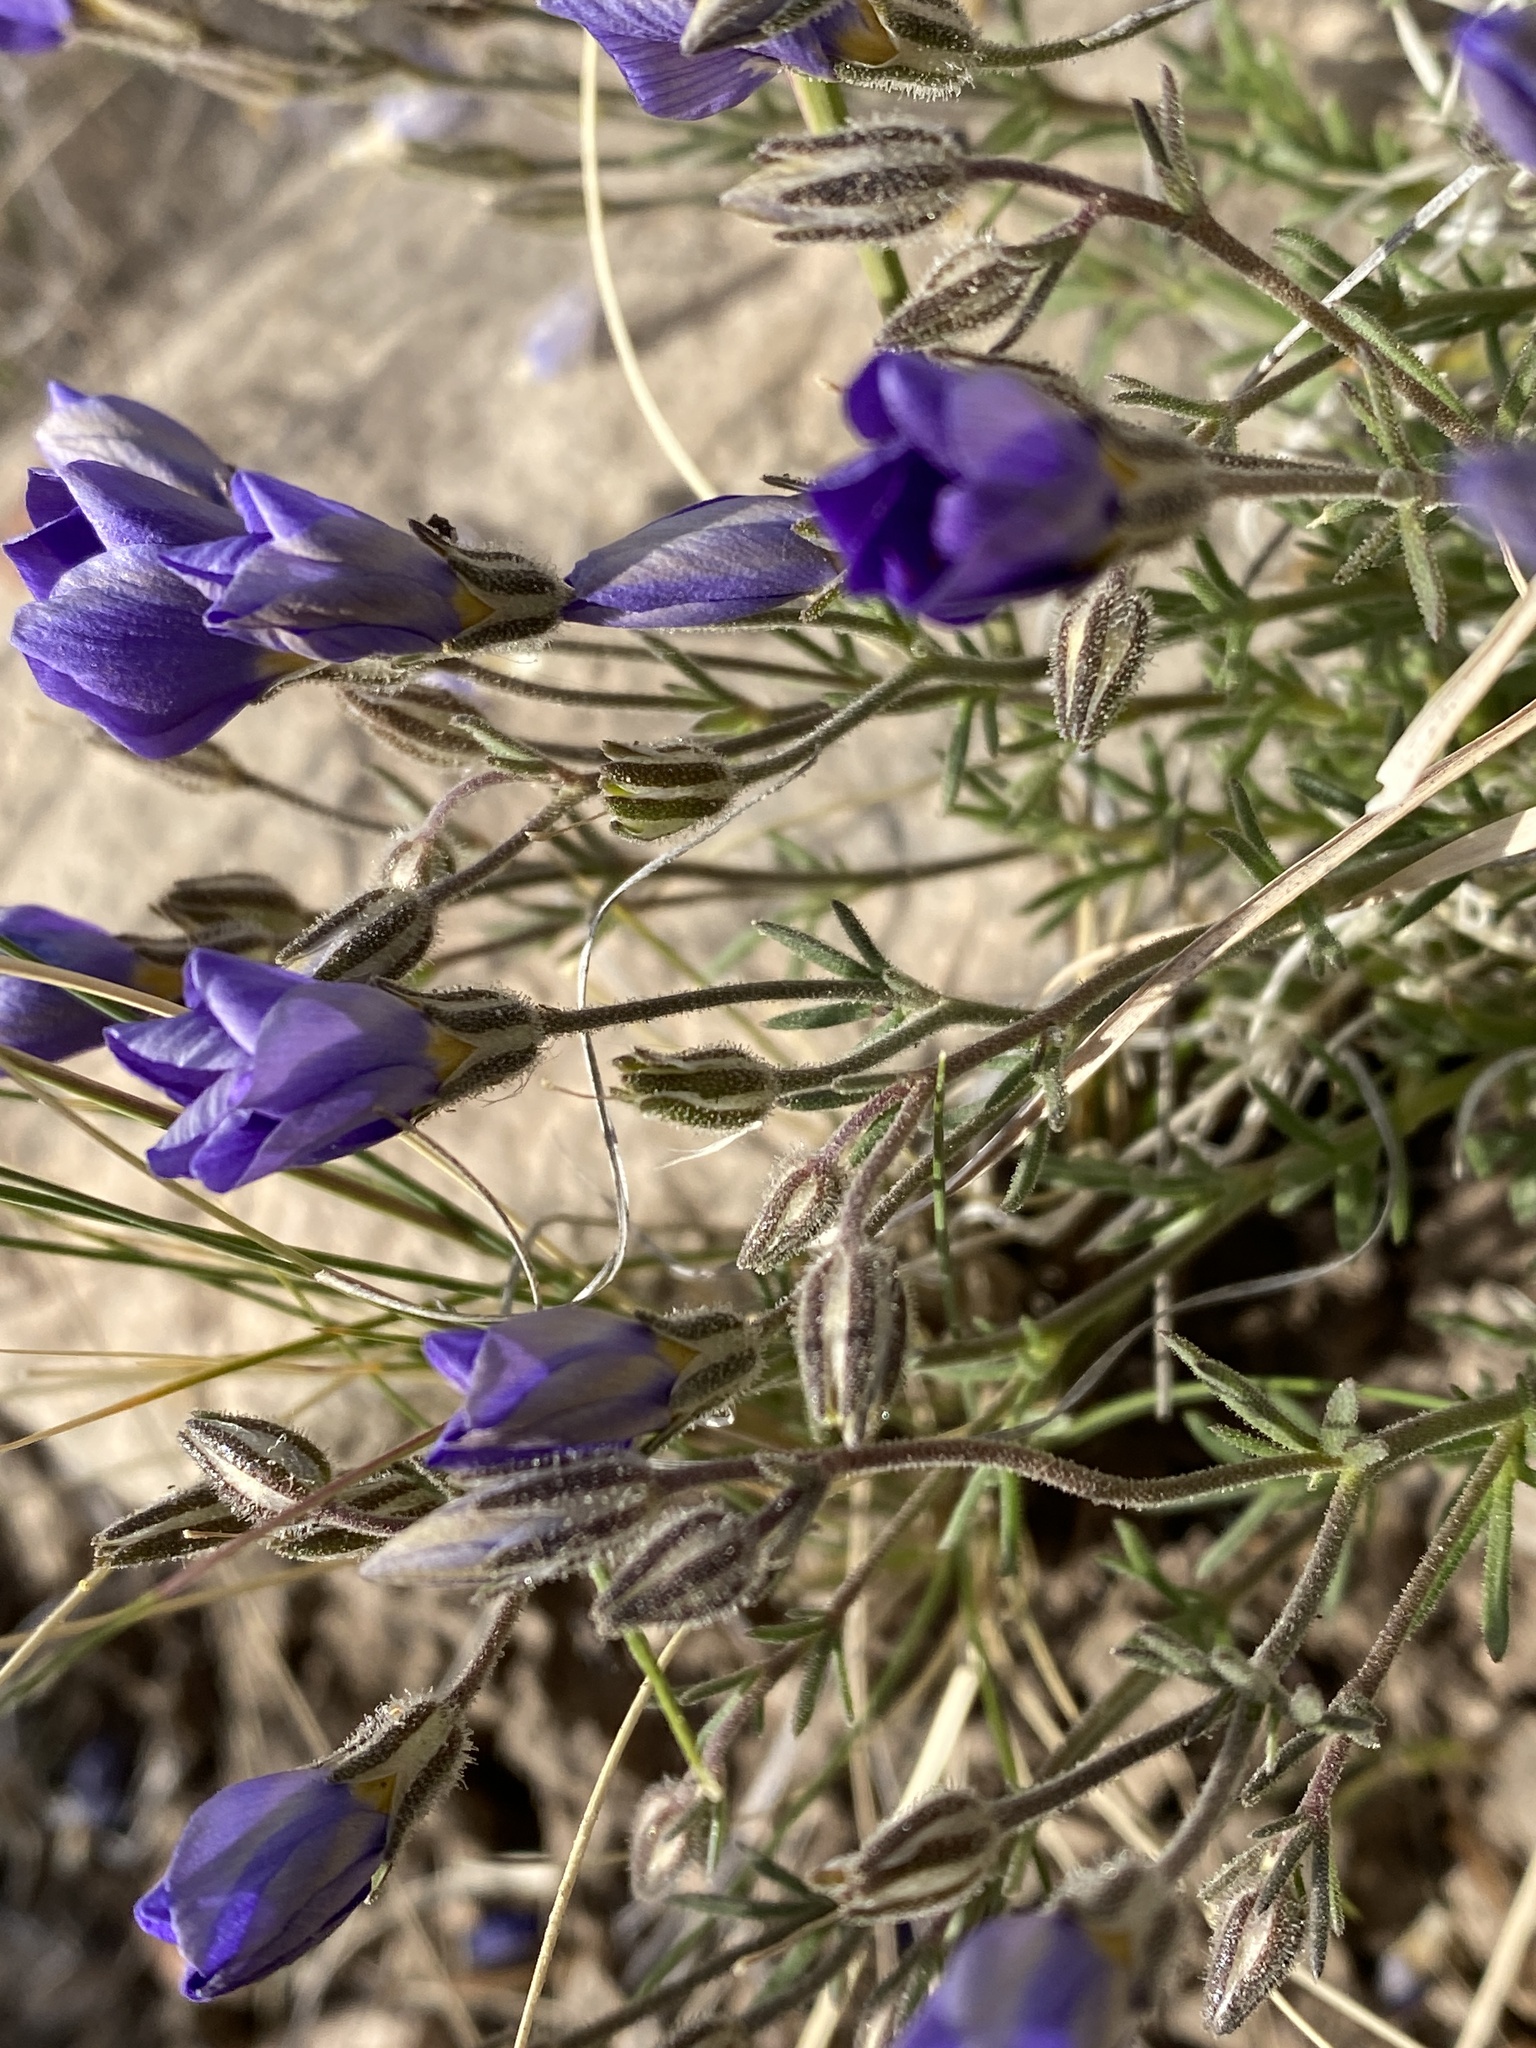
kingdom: Plantae
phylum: Tracheophyta
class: Magnoliopsida
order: Ericales
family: Polemoniaceae
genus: Giliastrum
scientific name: Giliastrum acerosum
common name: Bluebowls
